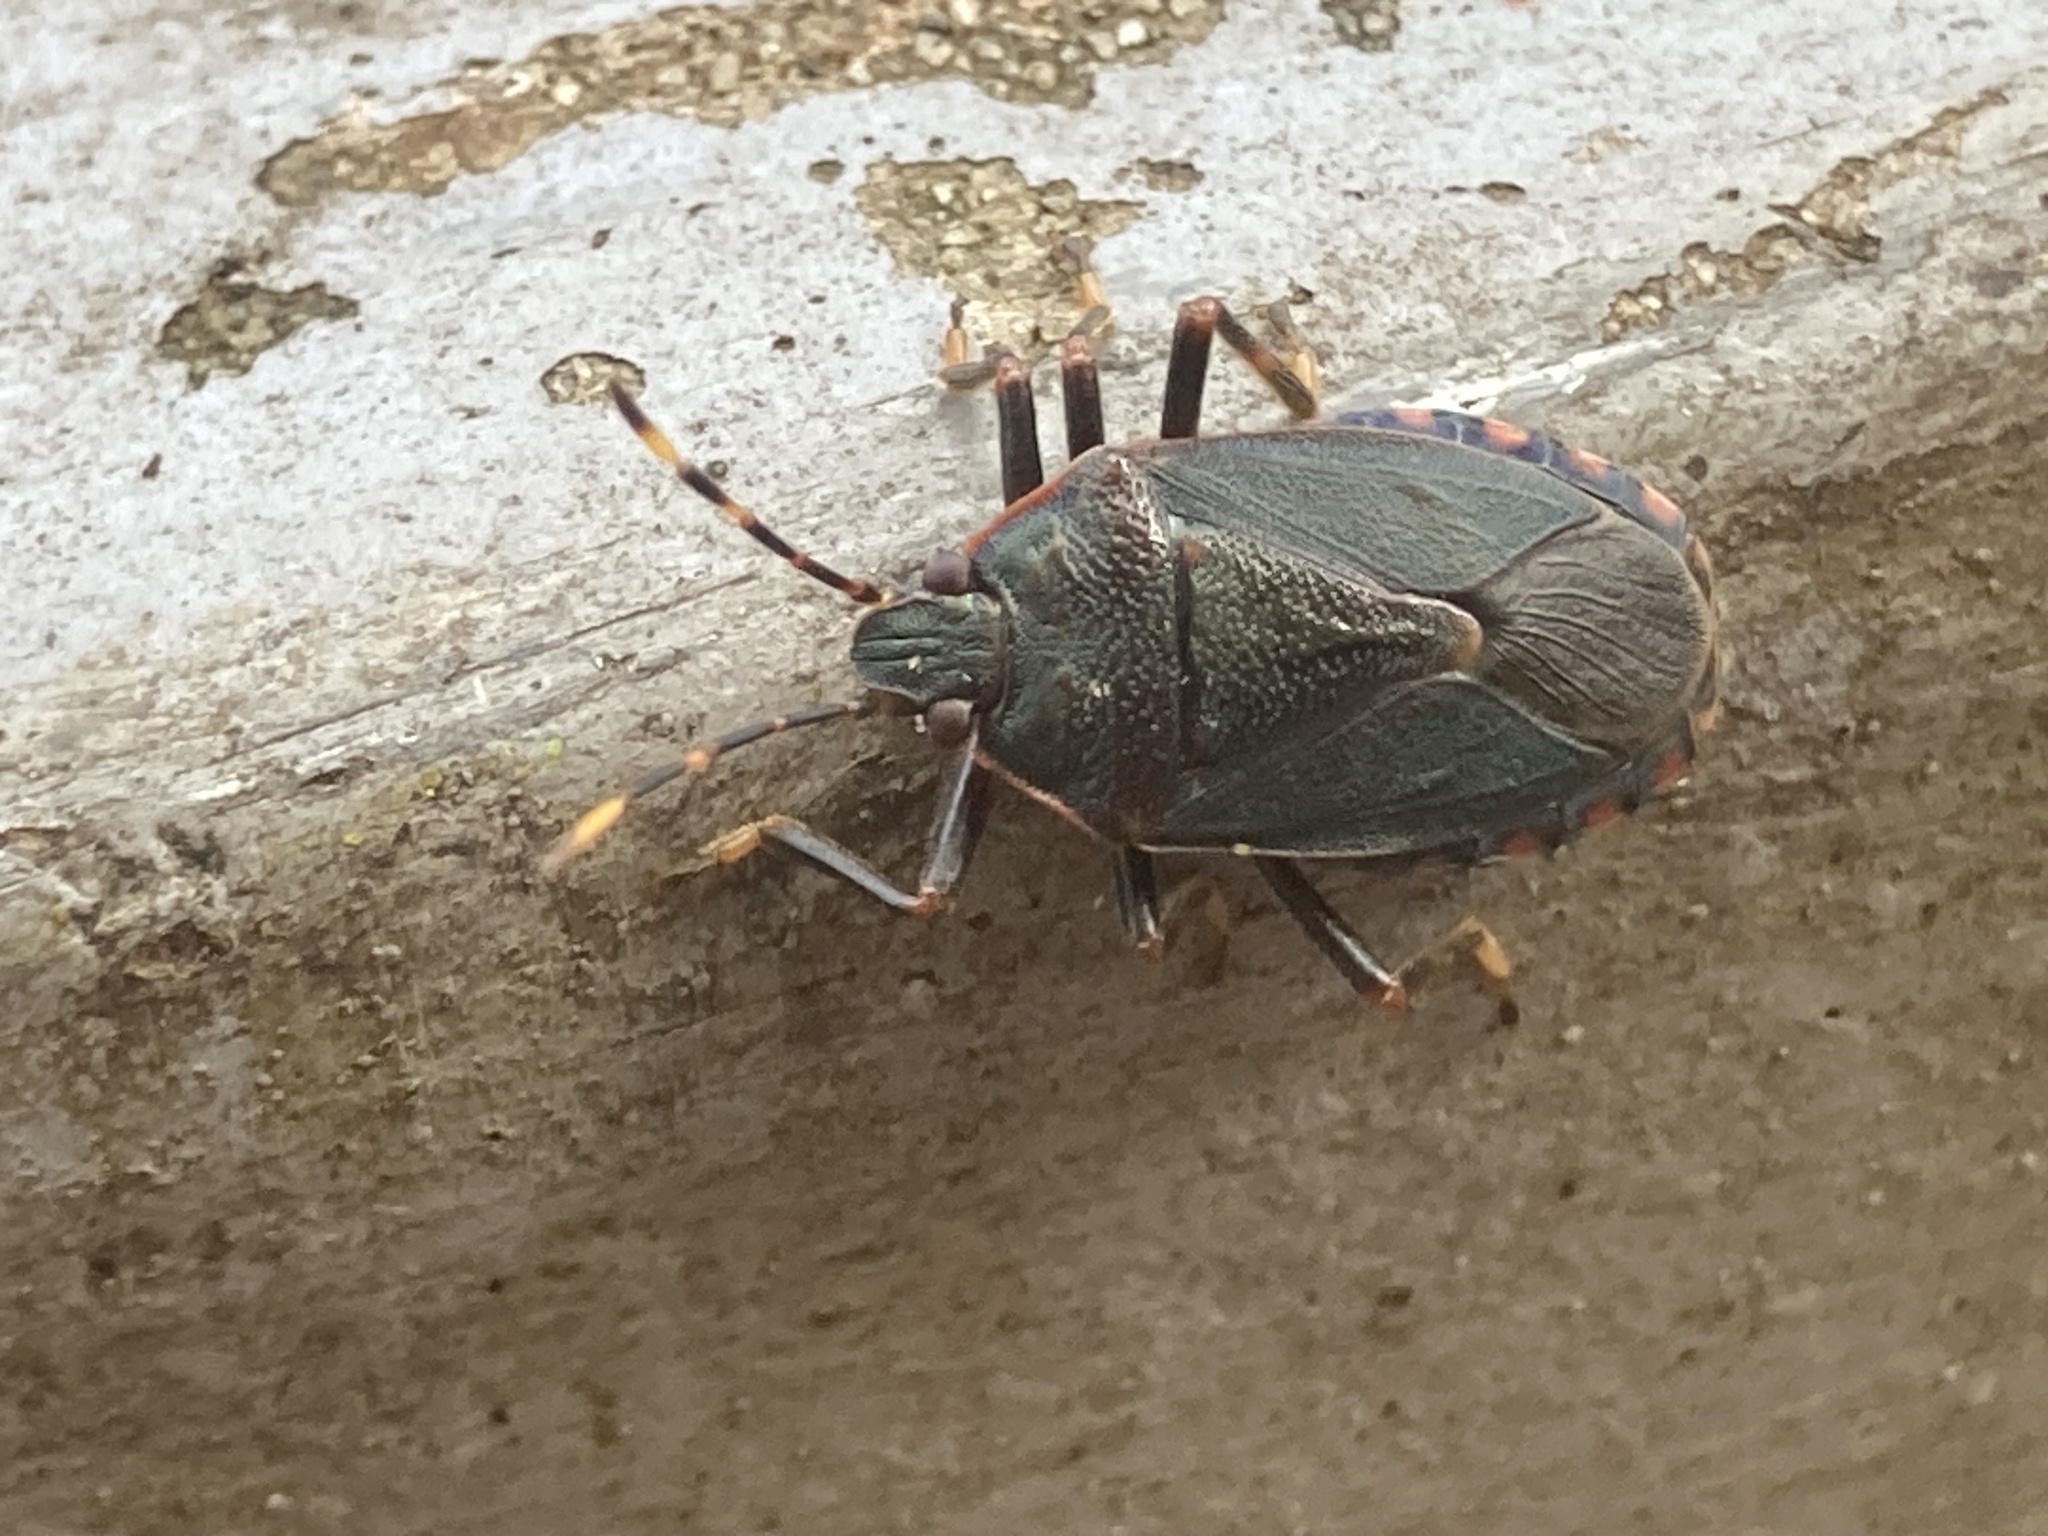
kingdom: Animalia
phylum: Arthropoda
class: Insecta
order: Hemiptera
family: Pentatomidae
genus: Notius
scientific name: Notius
